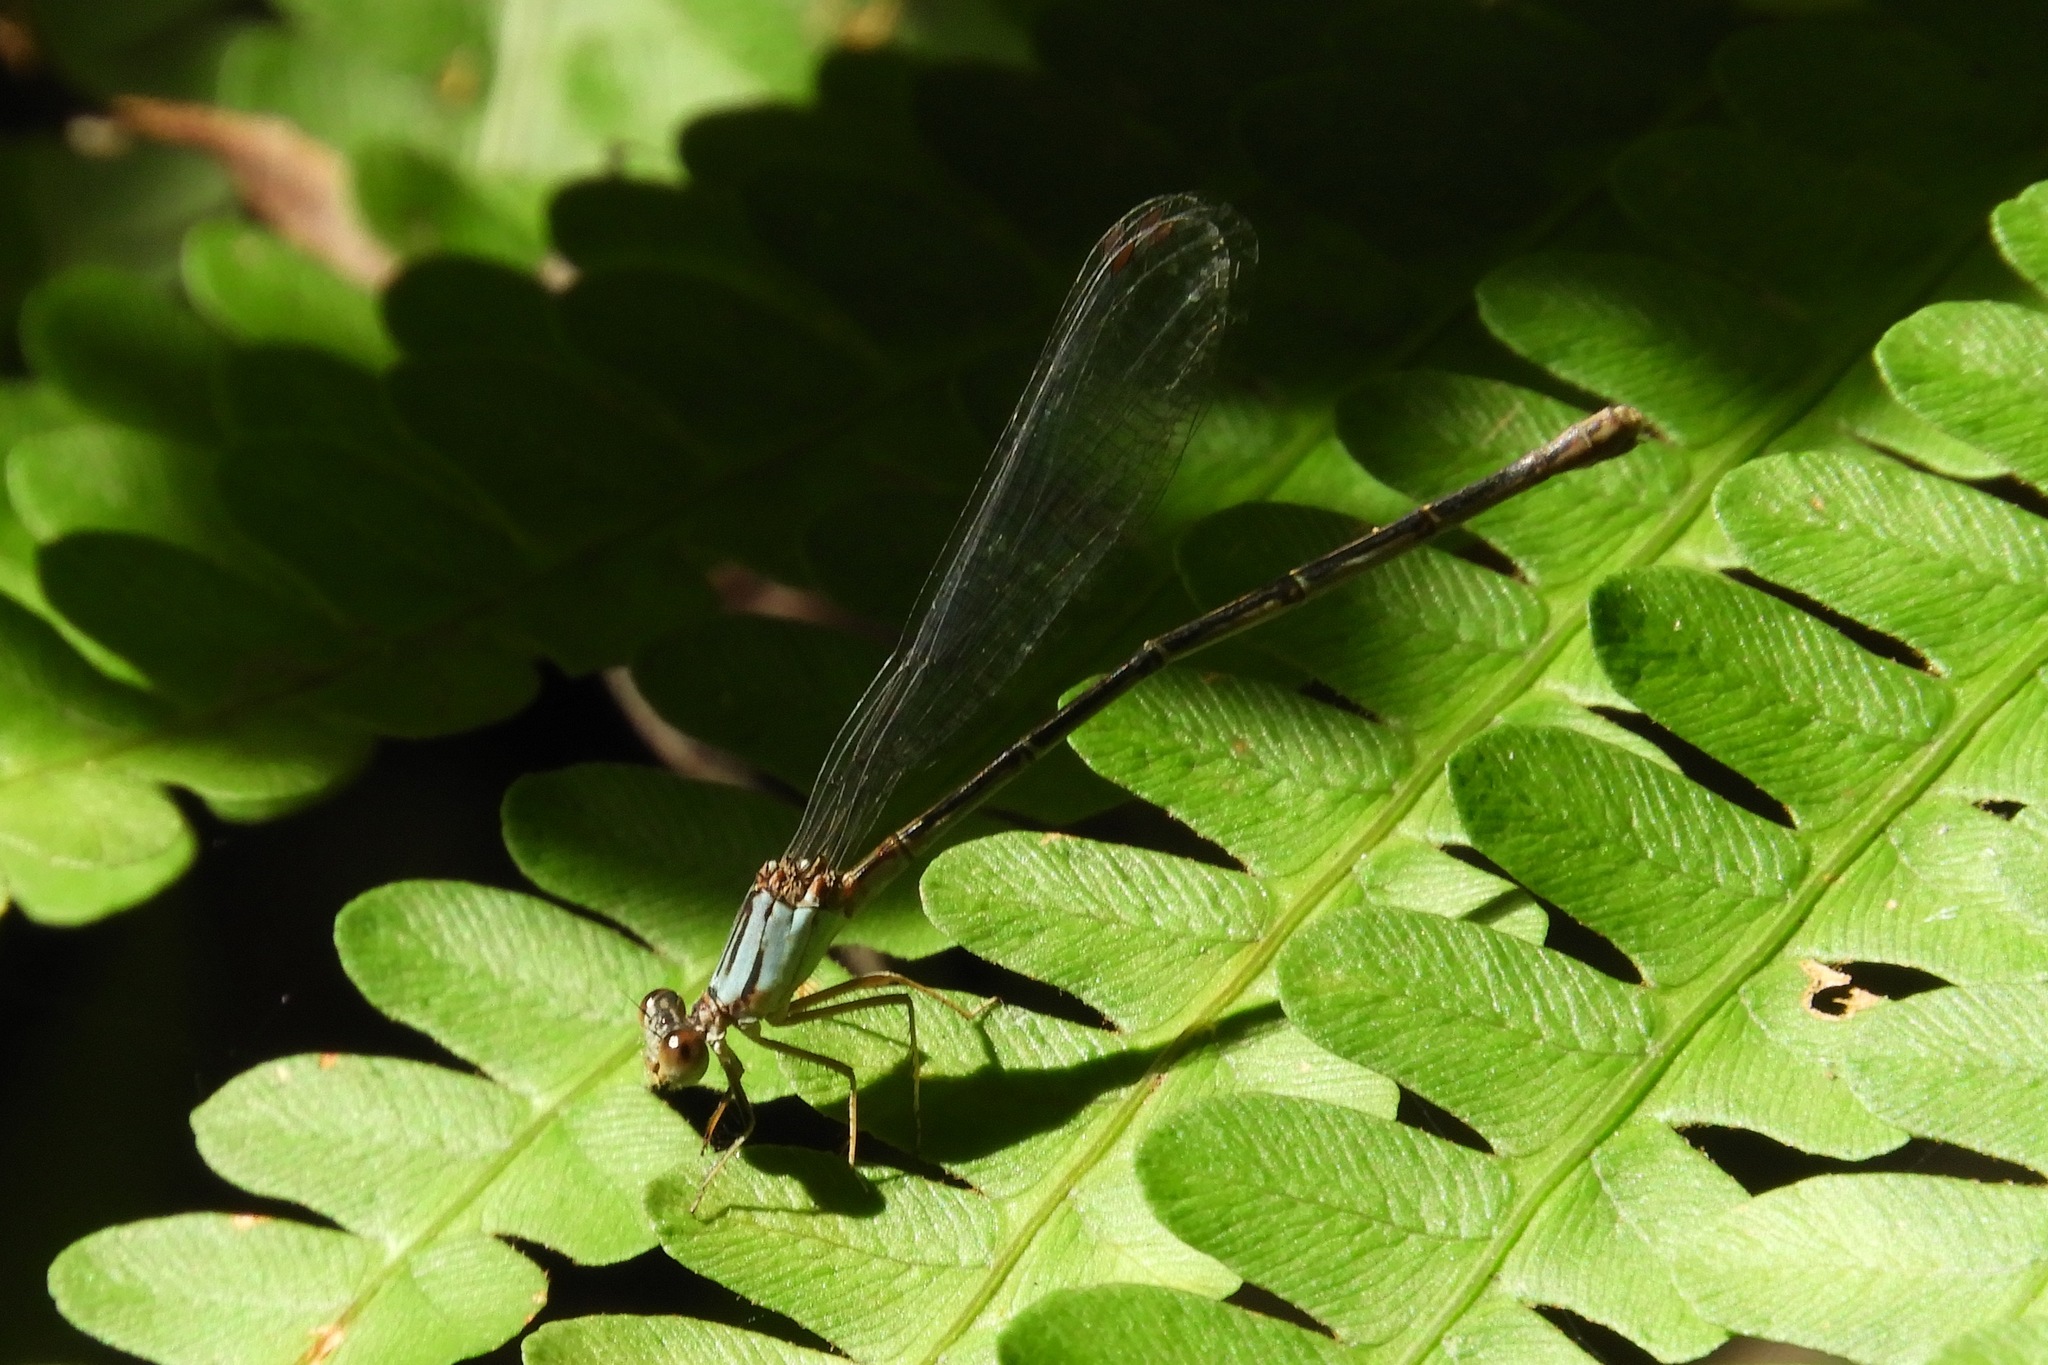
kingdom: Animalia
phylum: Arthropoda
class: Insecta
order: Odonata
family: Coenagrionidae
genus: Argia
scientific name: Argia apicalis
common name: Blue-fronted dancer
